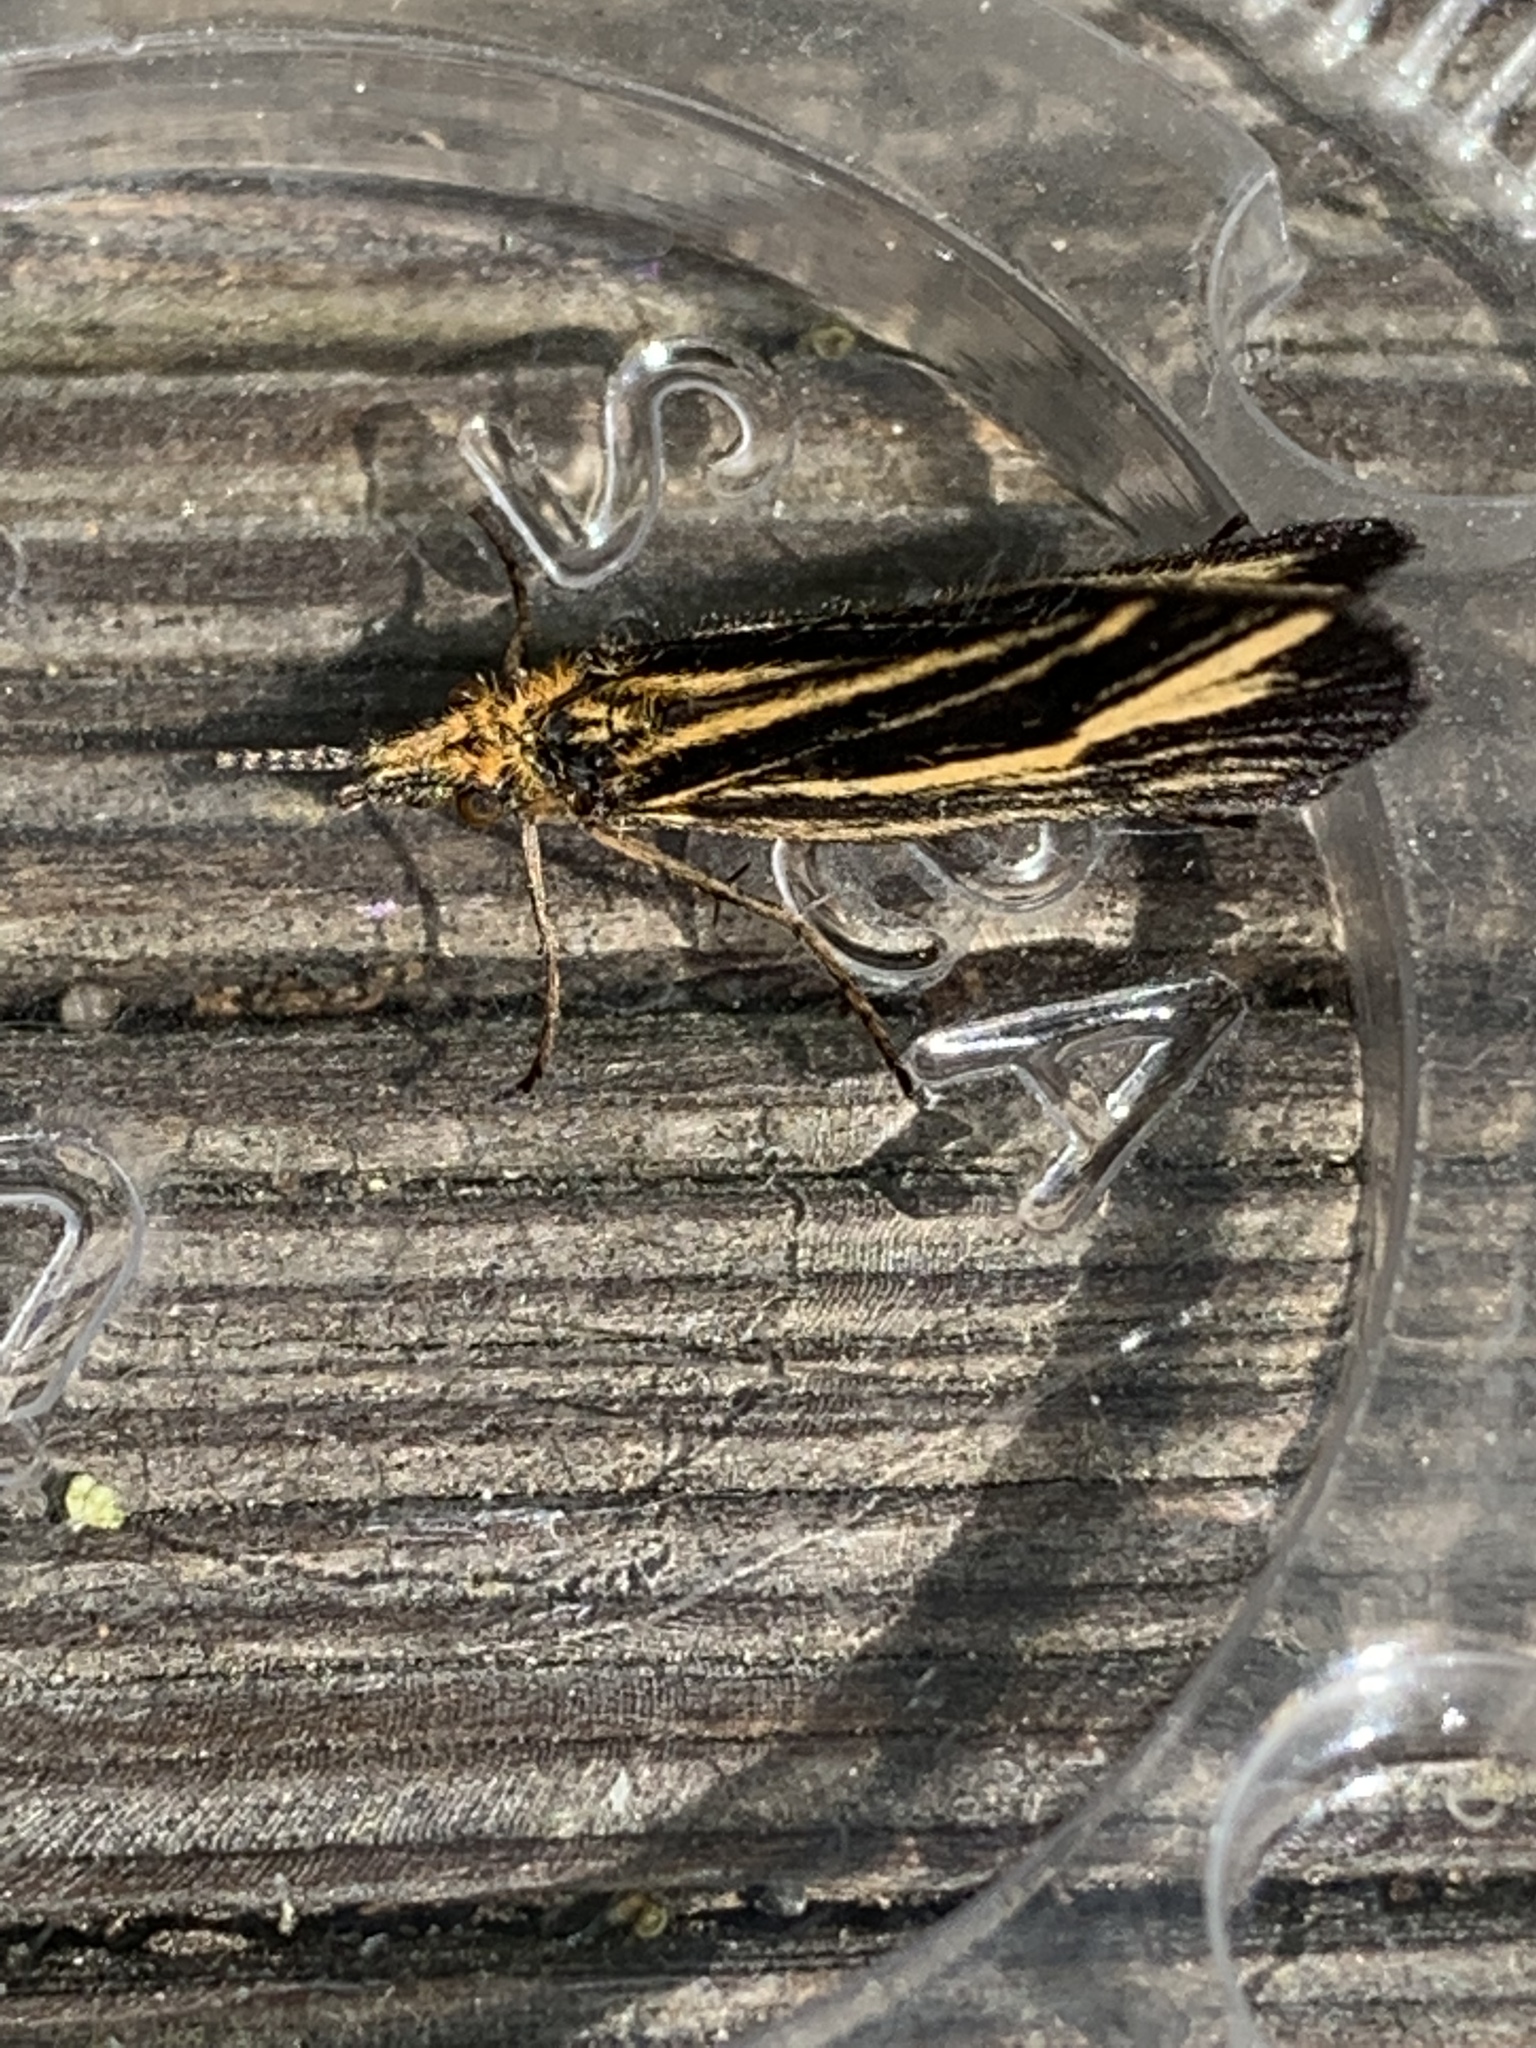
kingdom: Animalia
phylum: Arthropoda
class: Insecta
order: Trichoptera
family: Odontoceridae
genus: Nerophilus
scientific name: Nerophilus californicus
